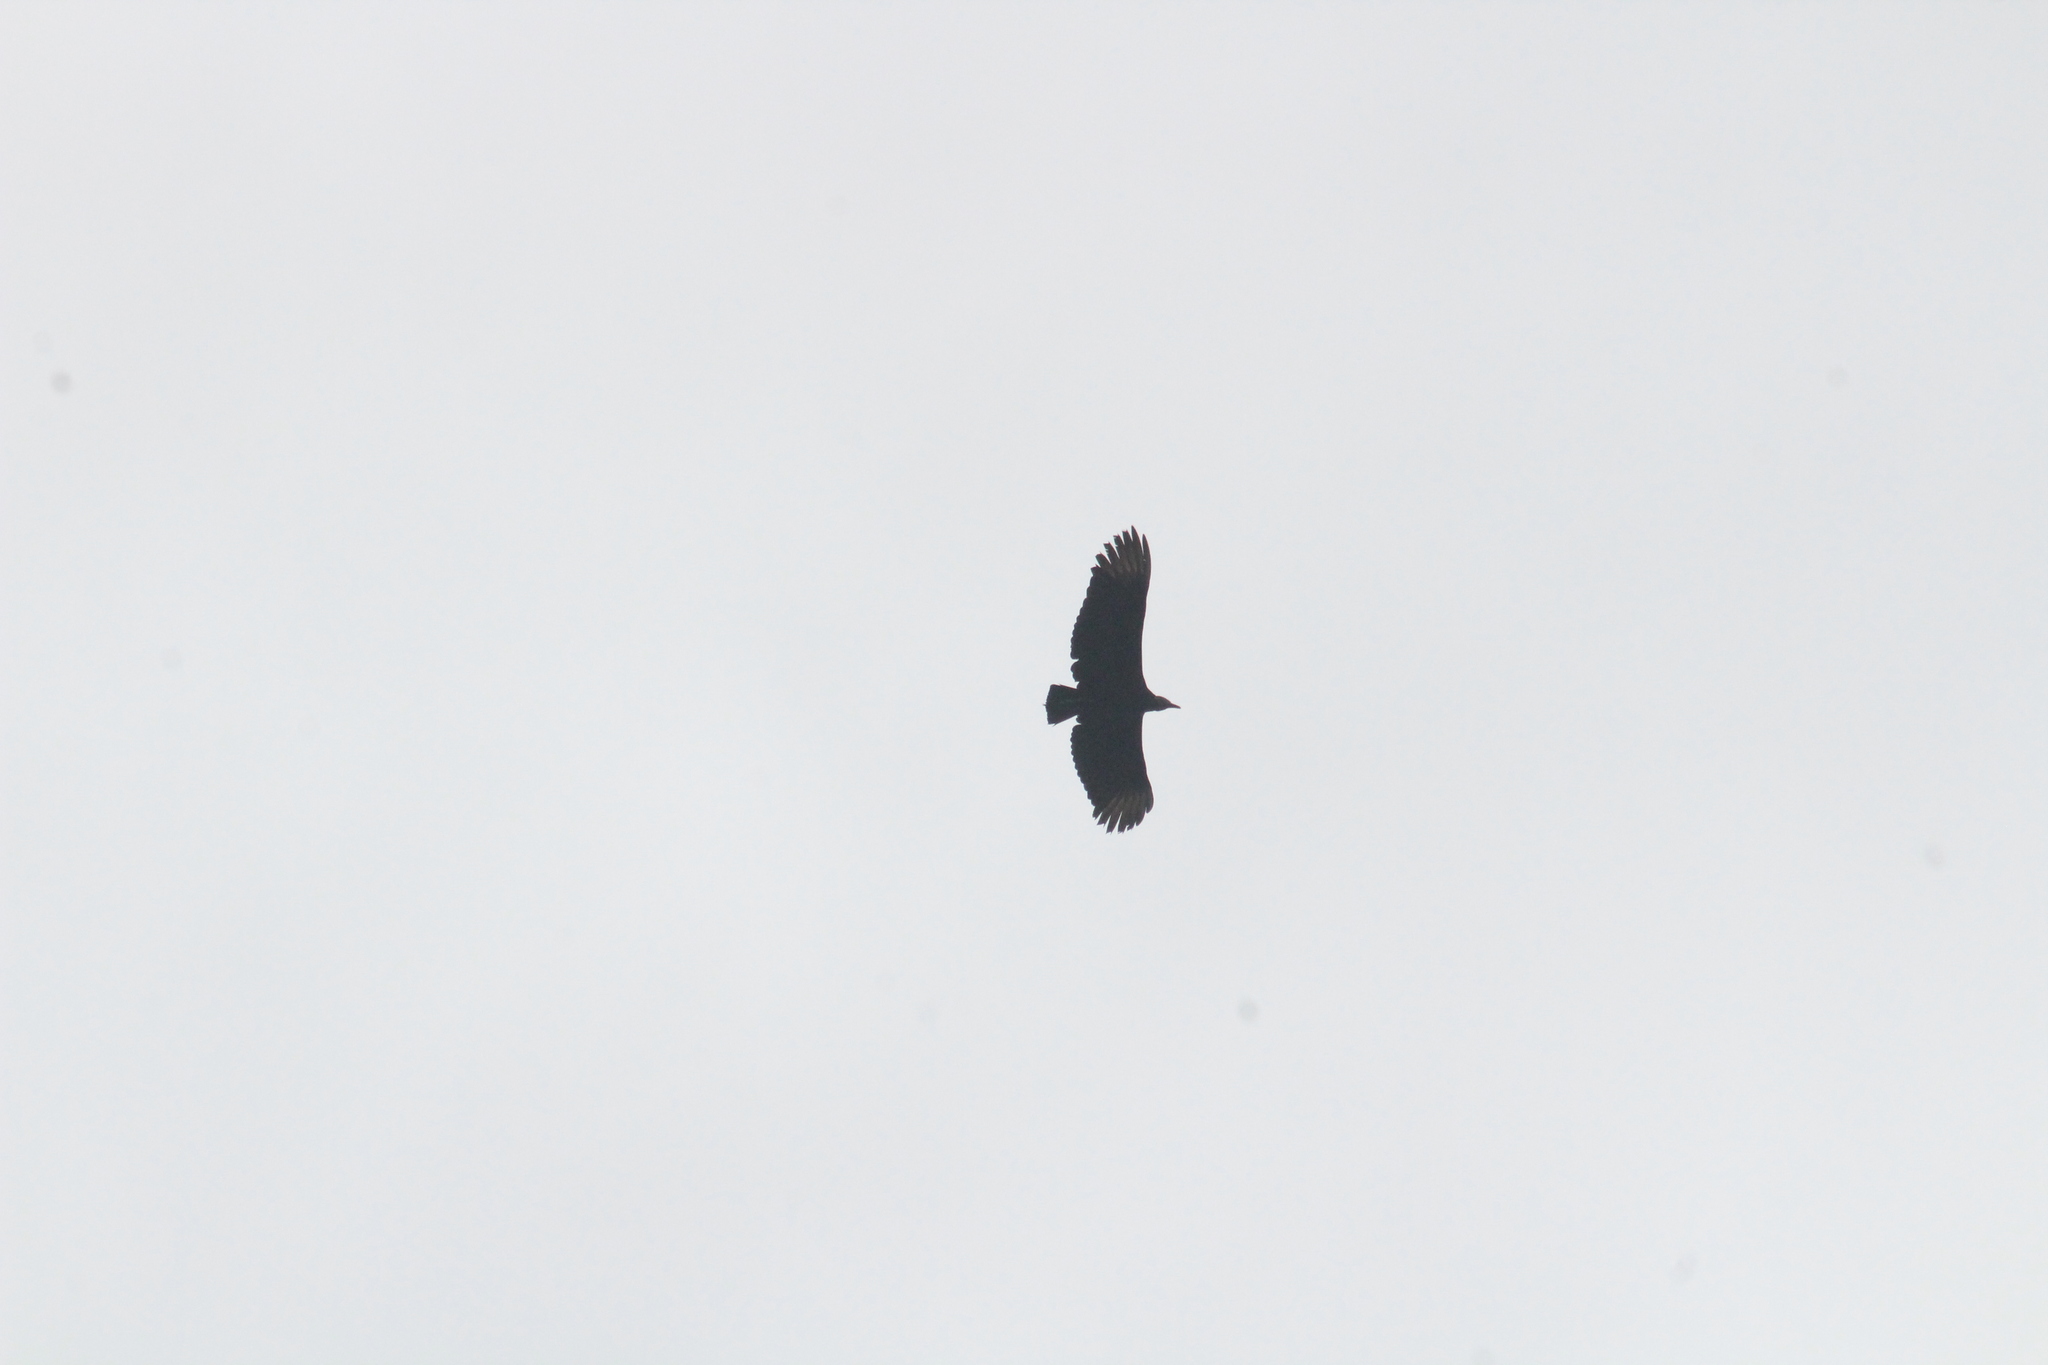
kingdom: Animalia
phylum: Chordata
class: Aves
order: Accipitriformes
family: Cathartidae
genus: Coragyps
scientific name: Coragyps atratus
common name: Black vulture
